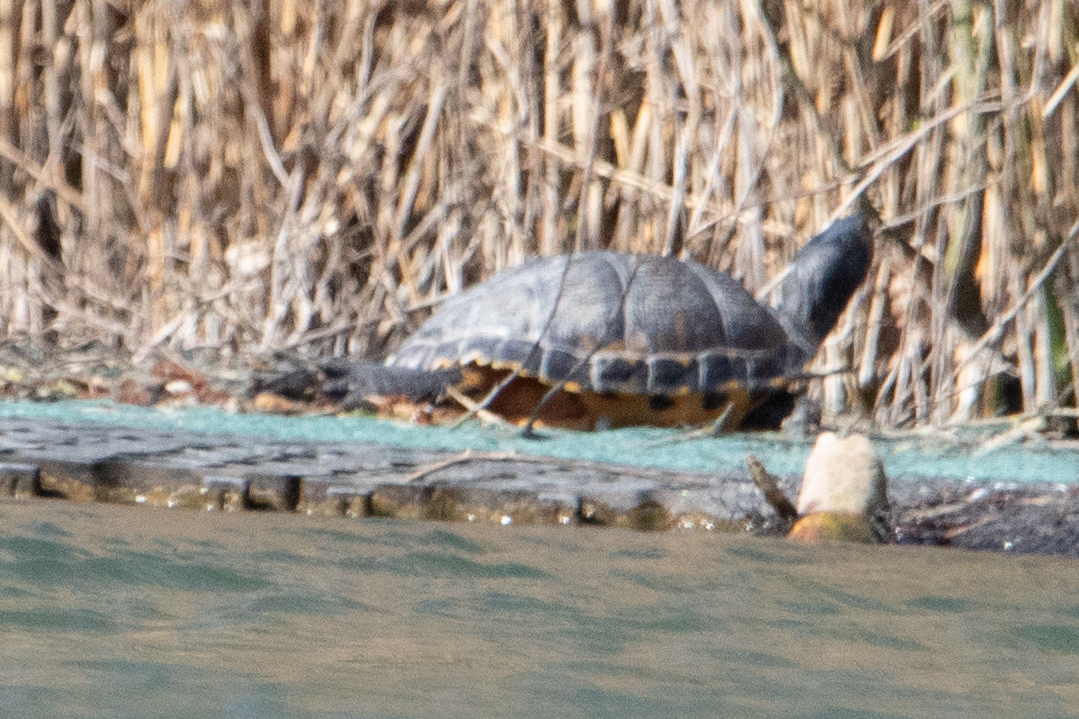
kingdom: Animalia
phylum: Chordata
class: Testudines
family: Emydidae
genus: Trachemys
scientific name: Trachemys scripta
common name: Slider
